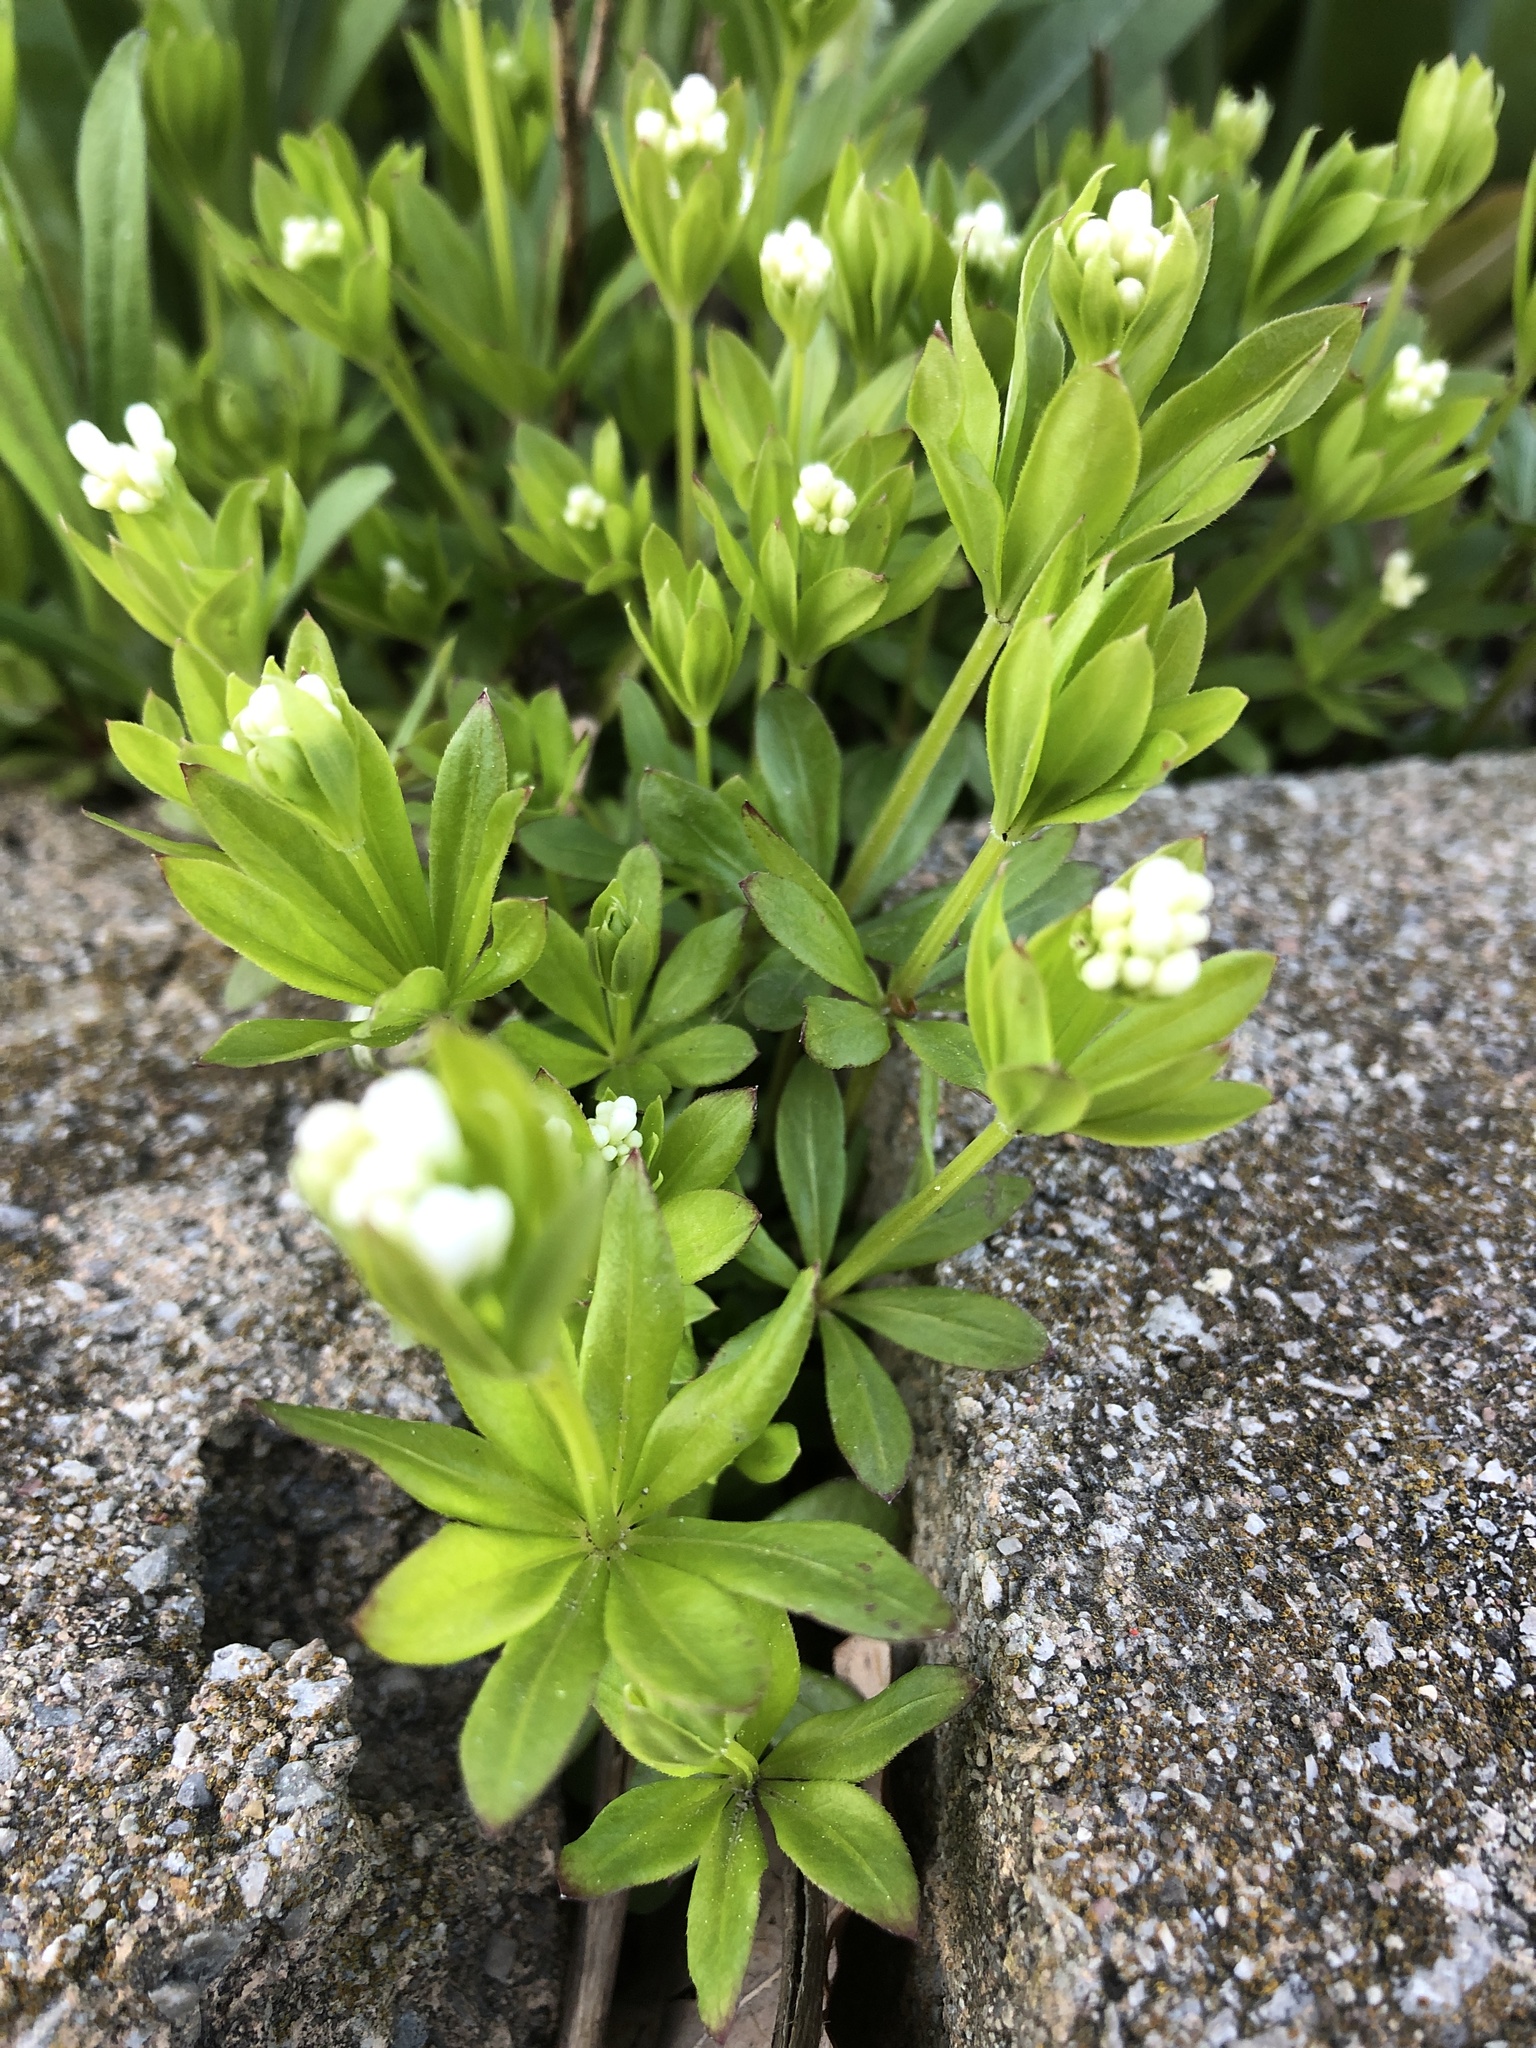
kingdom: Plantae
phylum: Tracheophyta
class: Magnoliopsida
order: Gentianales
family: Rubiaceae
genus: Galium
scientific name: Galium triflorum
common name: Fragrant bedstraw
